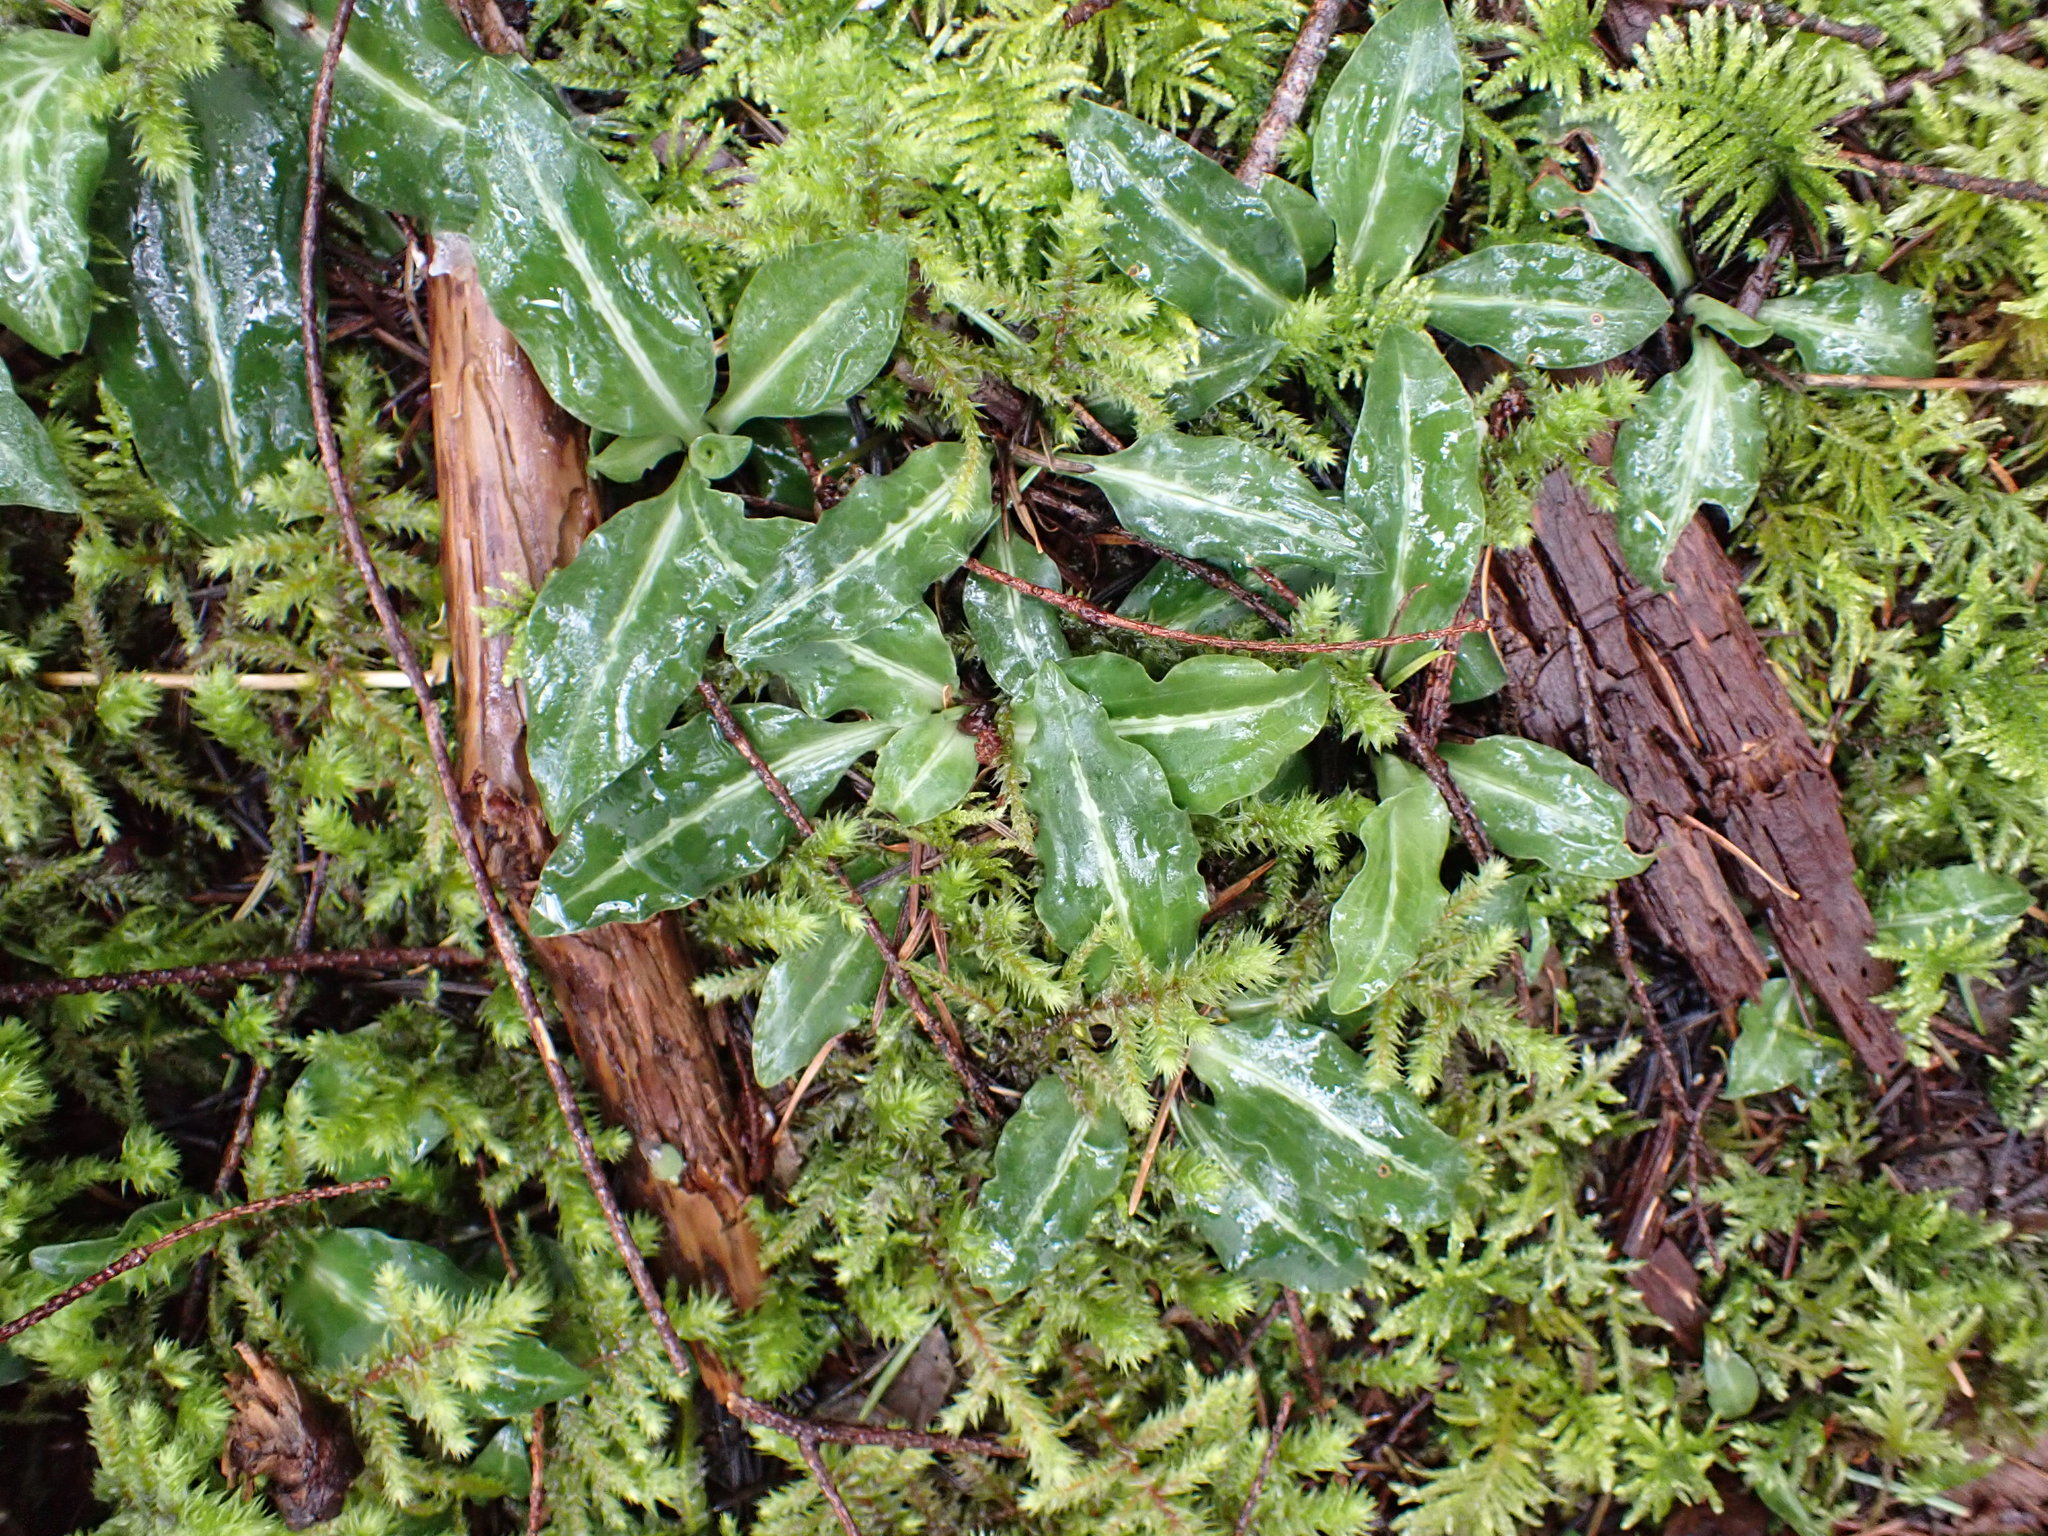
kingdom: Plantae
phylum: Tracheophyta
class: Liliopsida
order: Asparagales
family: Orchidaceae
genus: Goodyera
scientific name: Goodyera oblongifolia
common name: Giant rattlesnake-plantain
